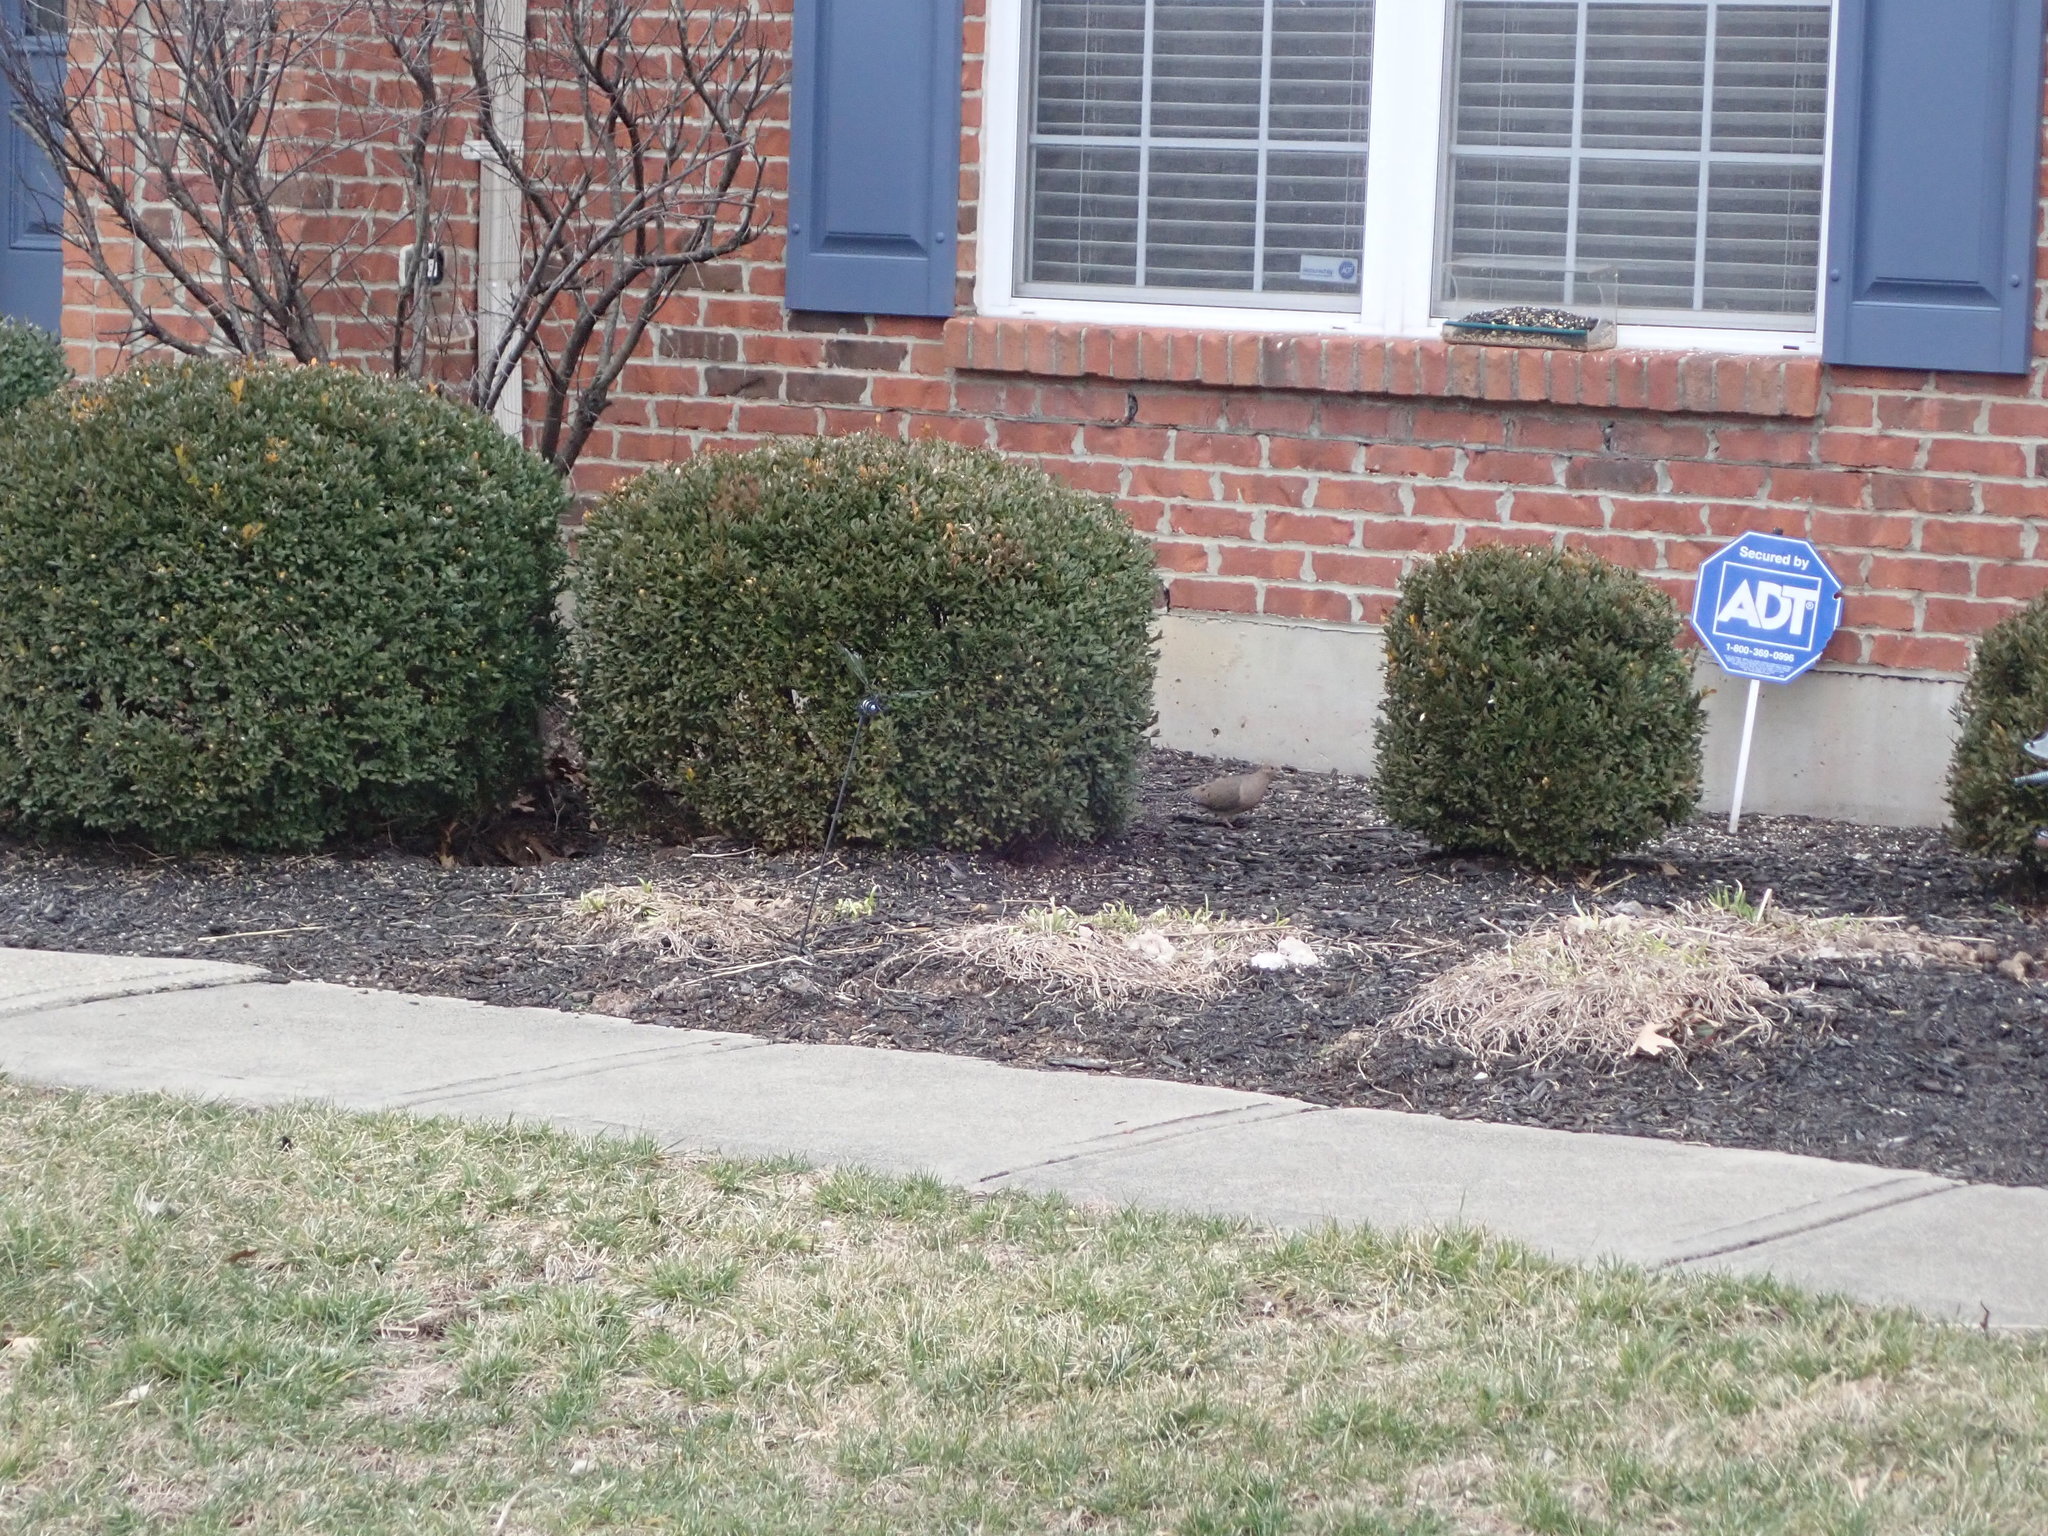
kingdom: Animalia
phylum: Chordata
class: Aves
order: Columbiformes
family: Columbidae
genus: Zenaida
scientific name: Zenaida macroura
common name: Mourning dove
